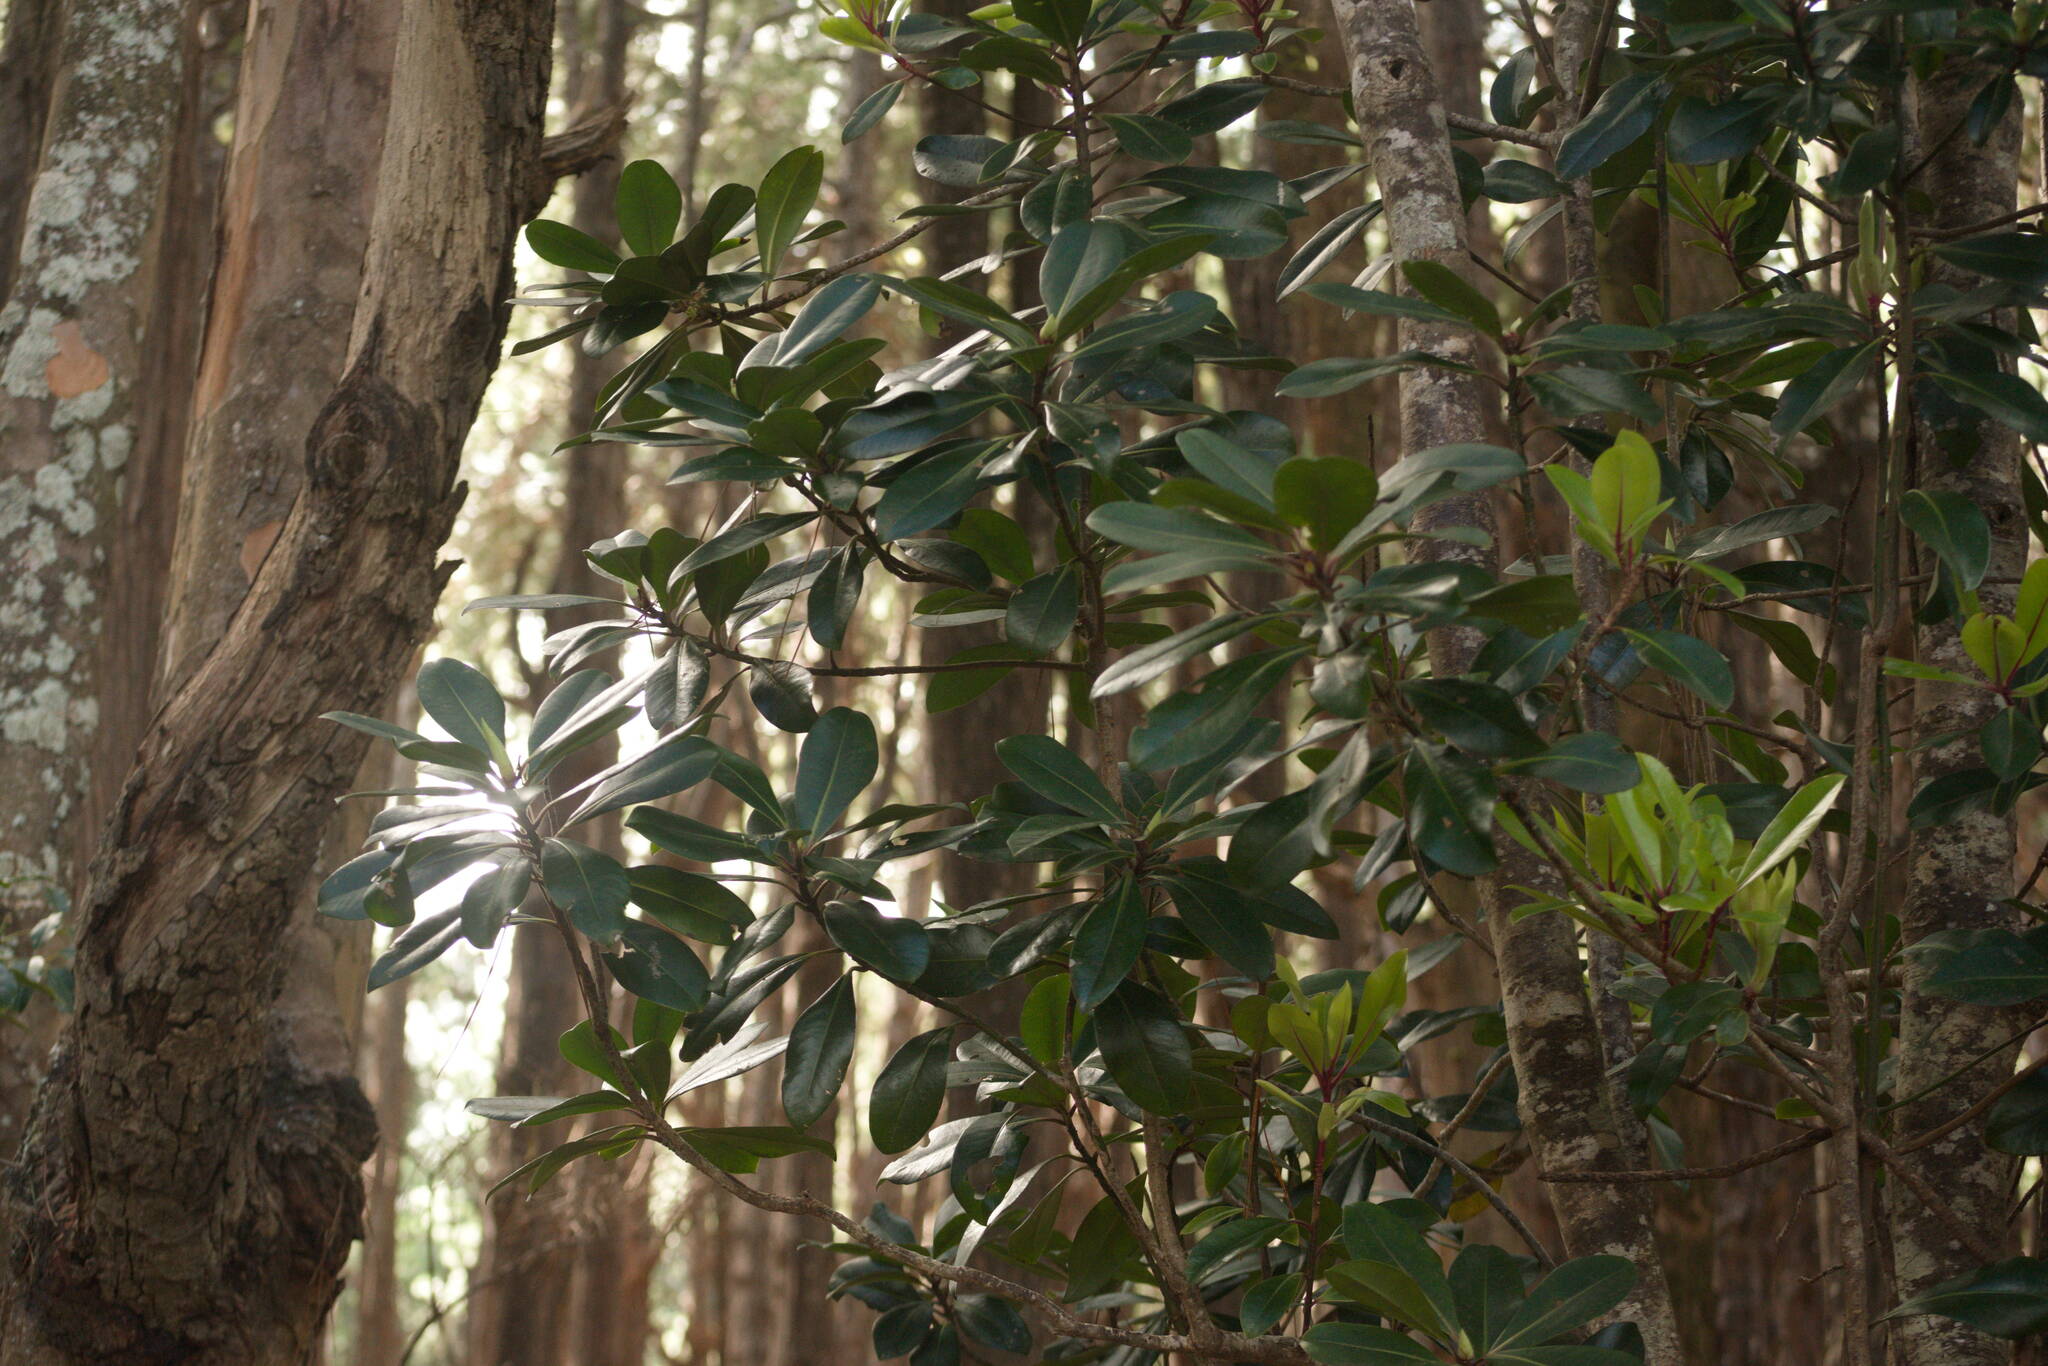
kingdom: Plantae
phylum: Tracheophyta
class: Magnoliopsida
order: Ericales
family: Primulaceae
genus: Myrsine
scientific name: Myrsine lessertiana
